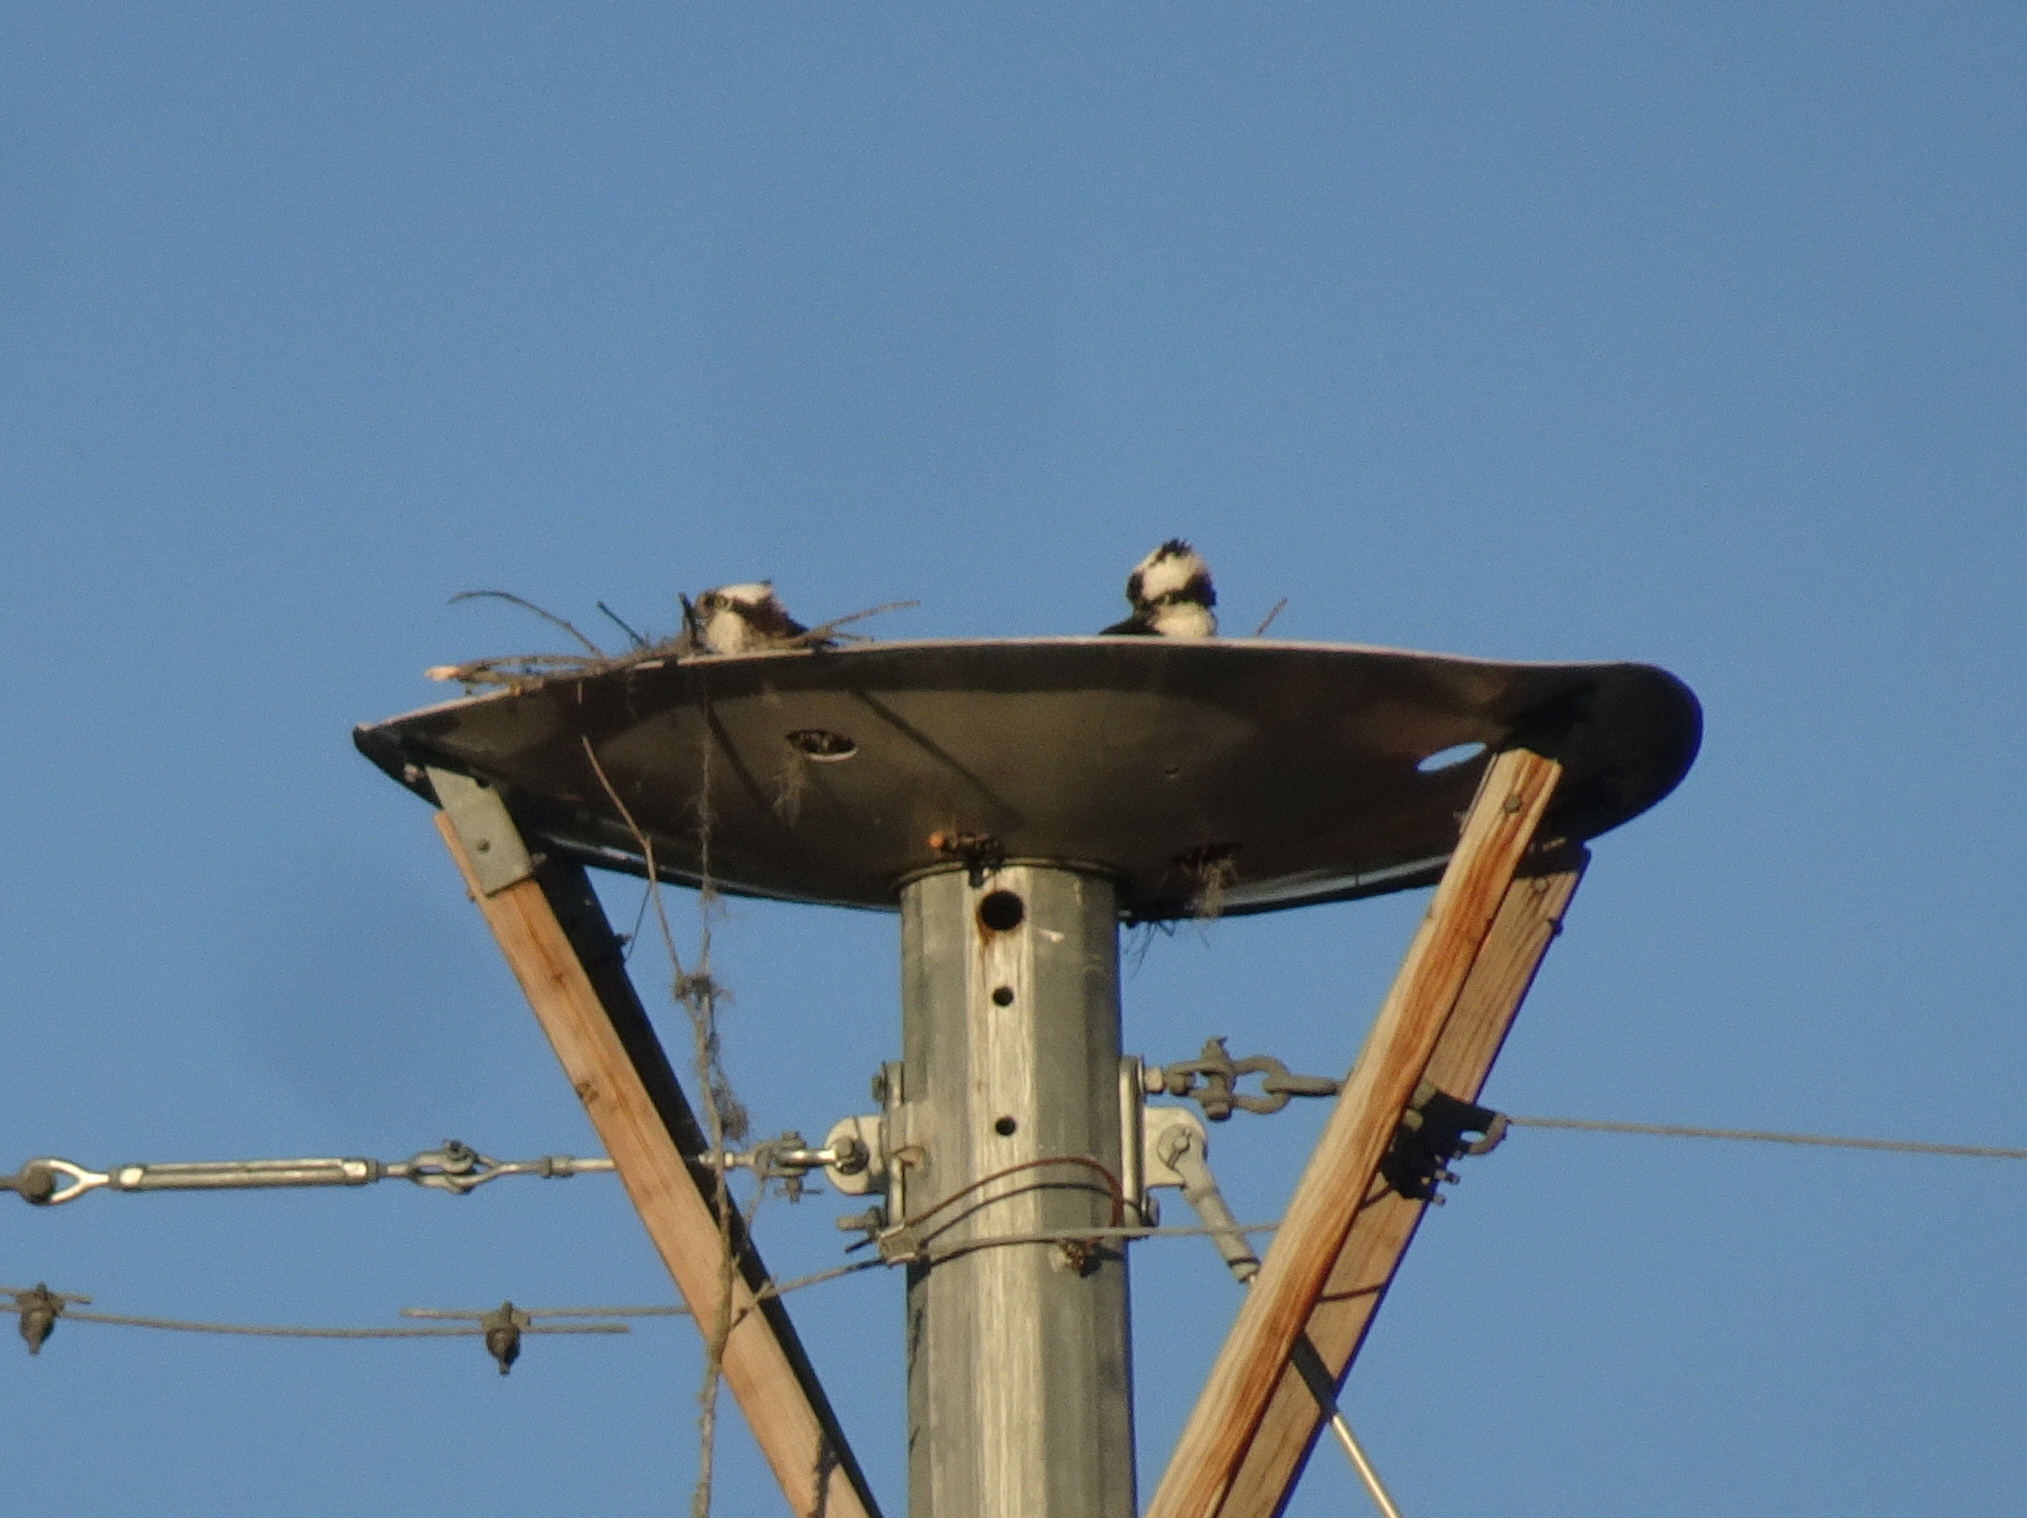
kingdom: Animalia
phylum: Chordata
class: Aves
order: Accipitriformes
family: Pandionidae
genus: Pandion
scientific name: Pandion haliaetus
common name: Osprey
